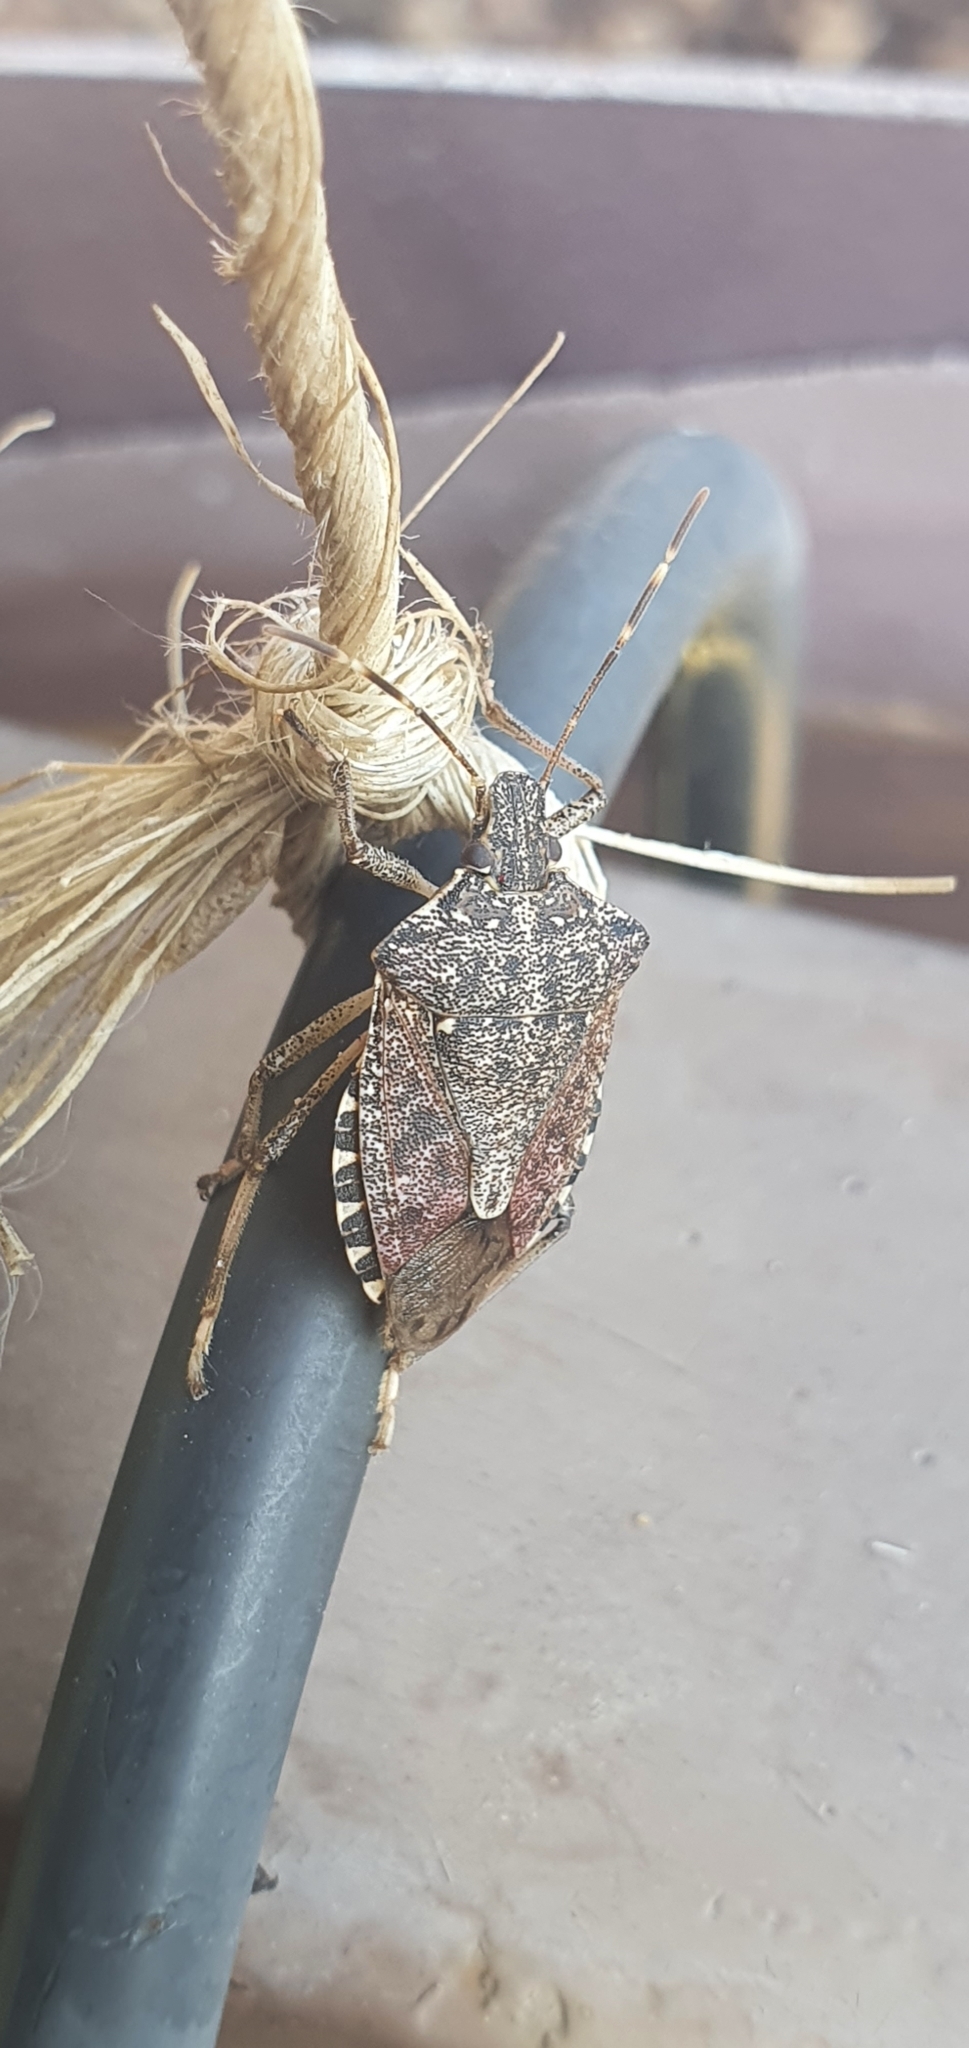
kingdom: Animalia
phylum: Arthropoda
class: Insecta
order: Hemiptera
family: Pentatomidae
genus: Halyomorpha
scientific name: Halyomorpha halys
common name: Brown marmorated stink bug
